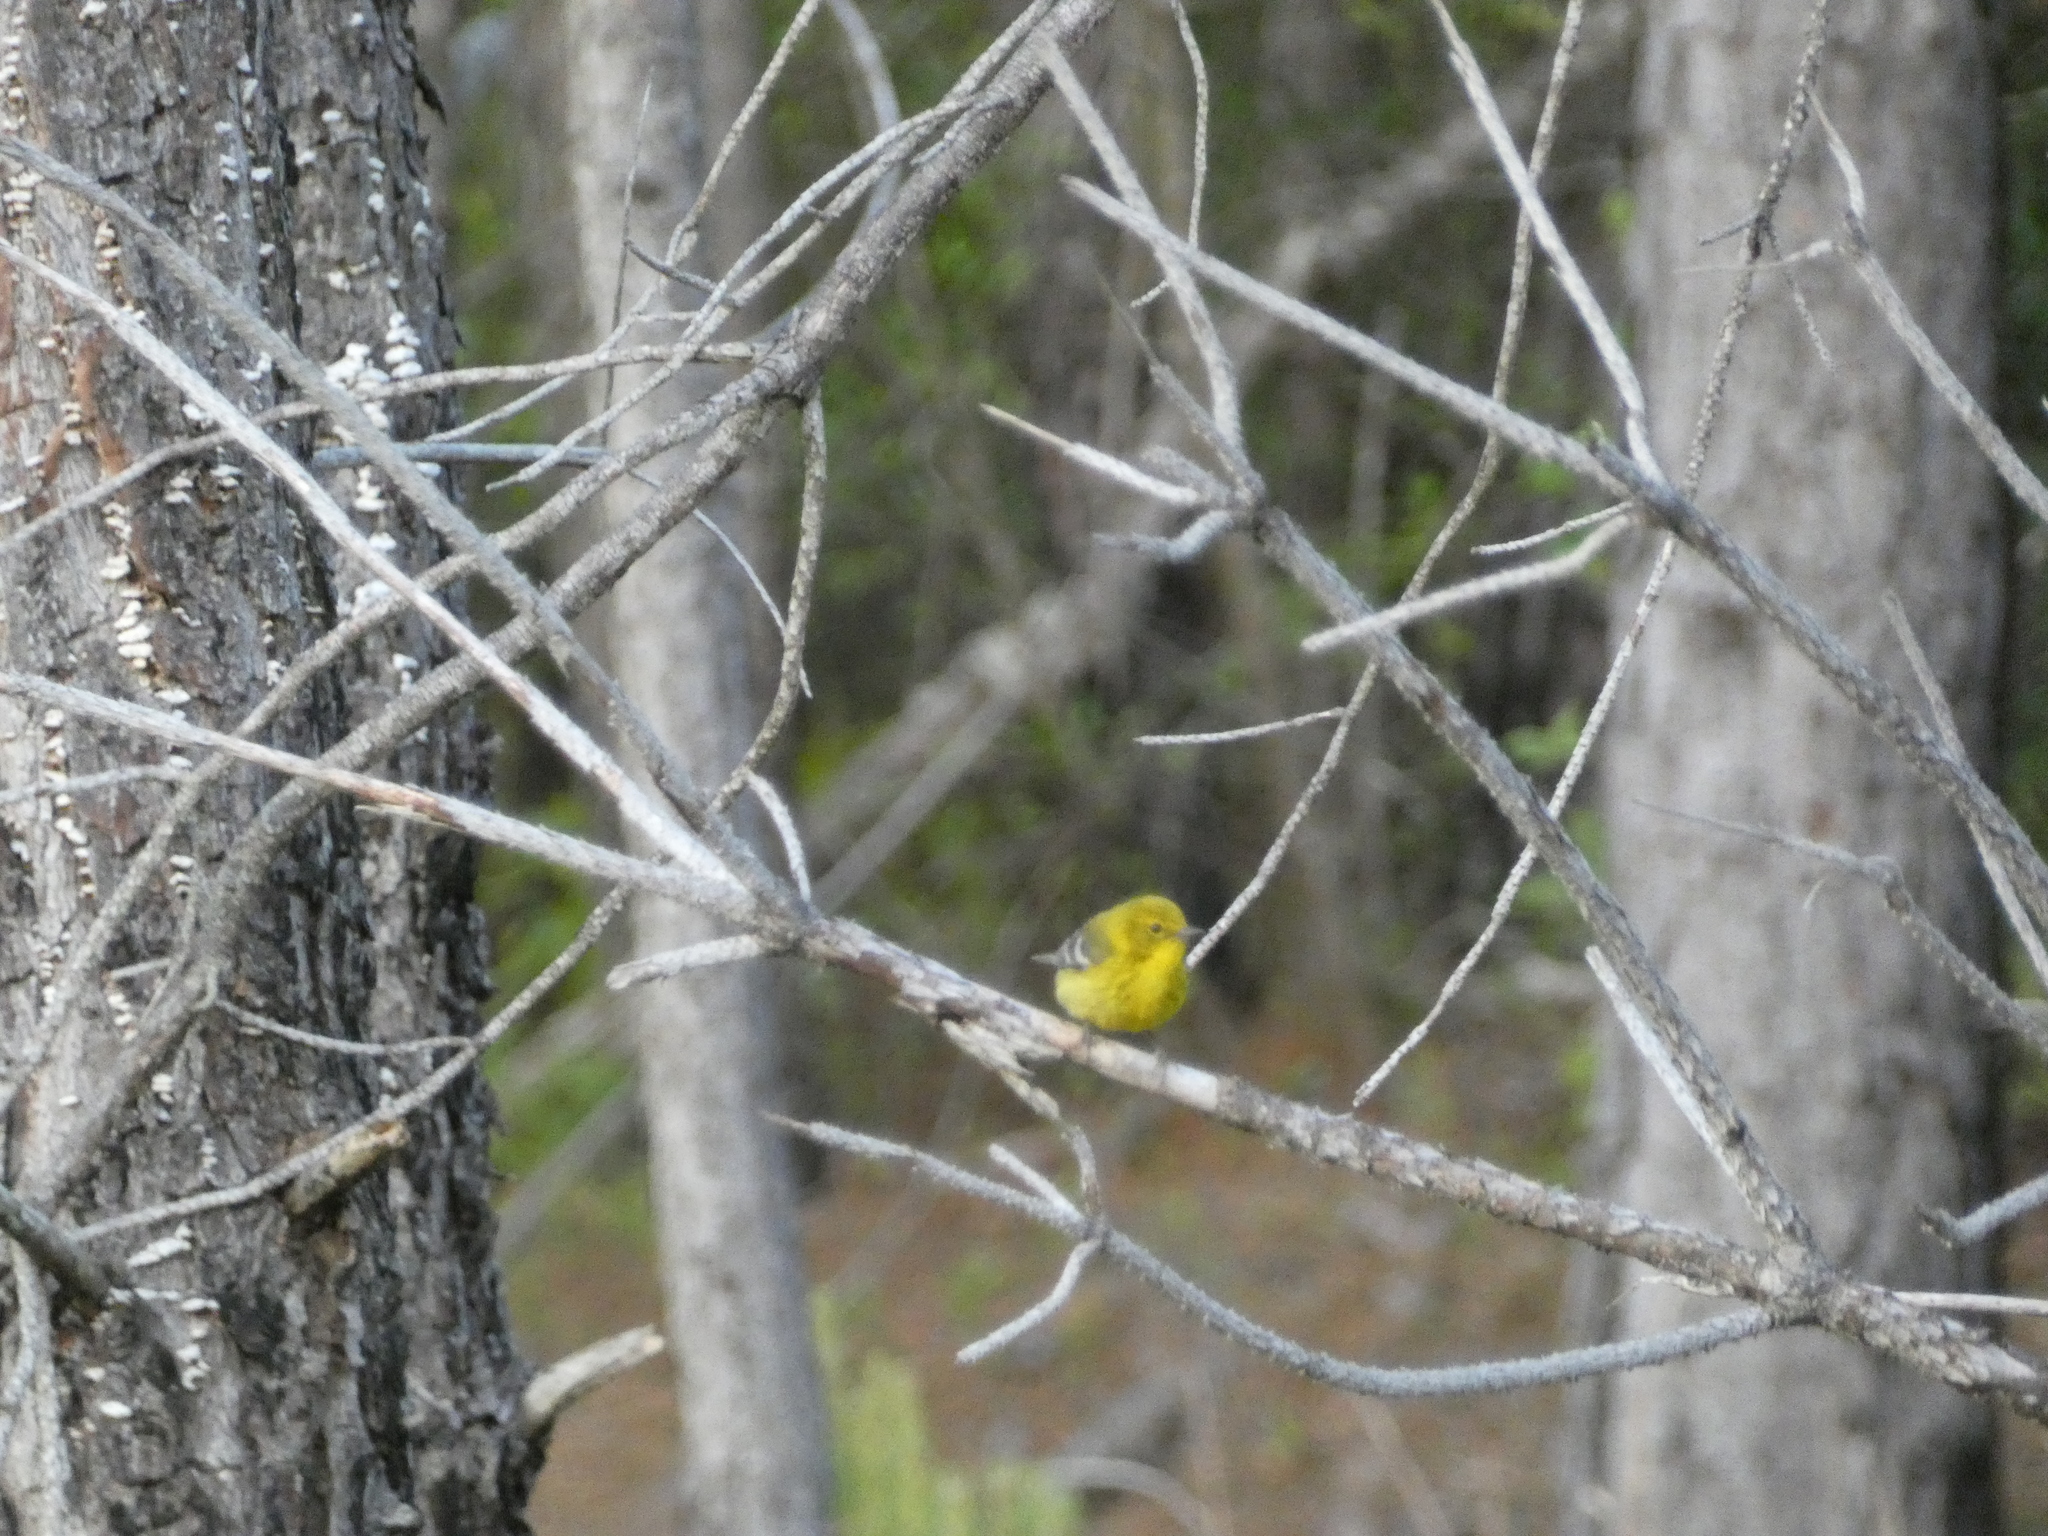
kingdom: Animalia
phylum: Chordata
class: Aves
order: Passeriformes
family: Parulidae
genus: Setophaga
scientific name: Setophaga pinus
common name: Pine warbler
